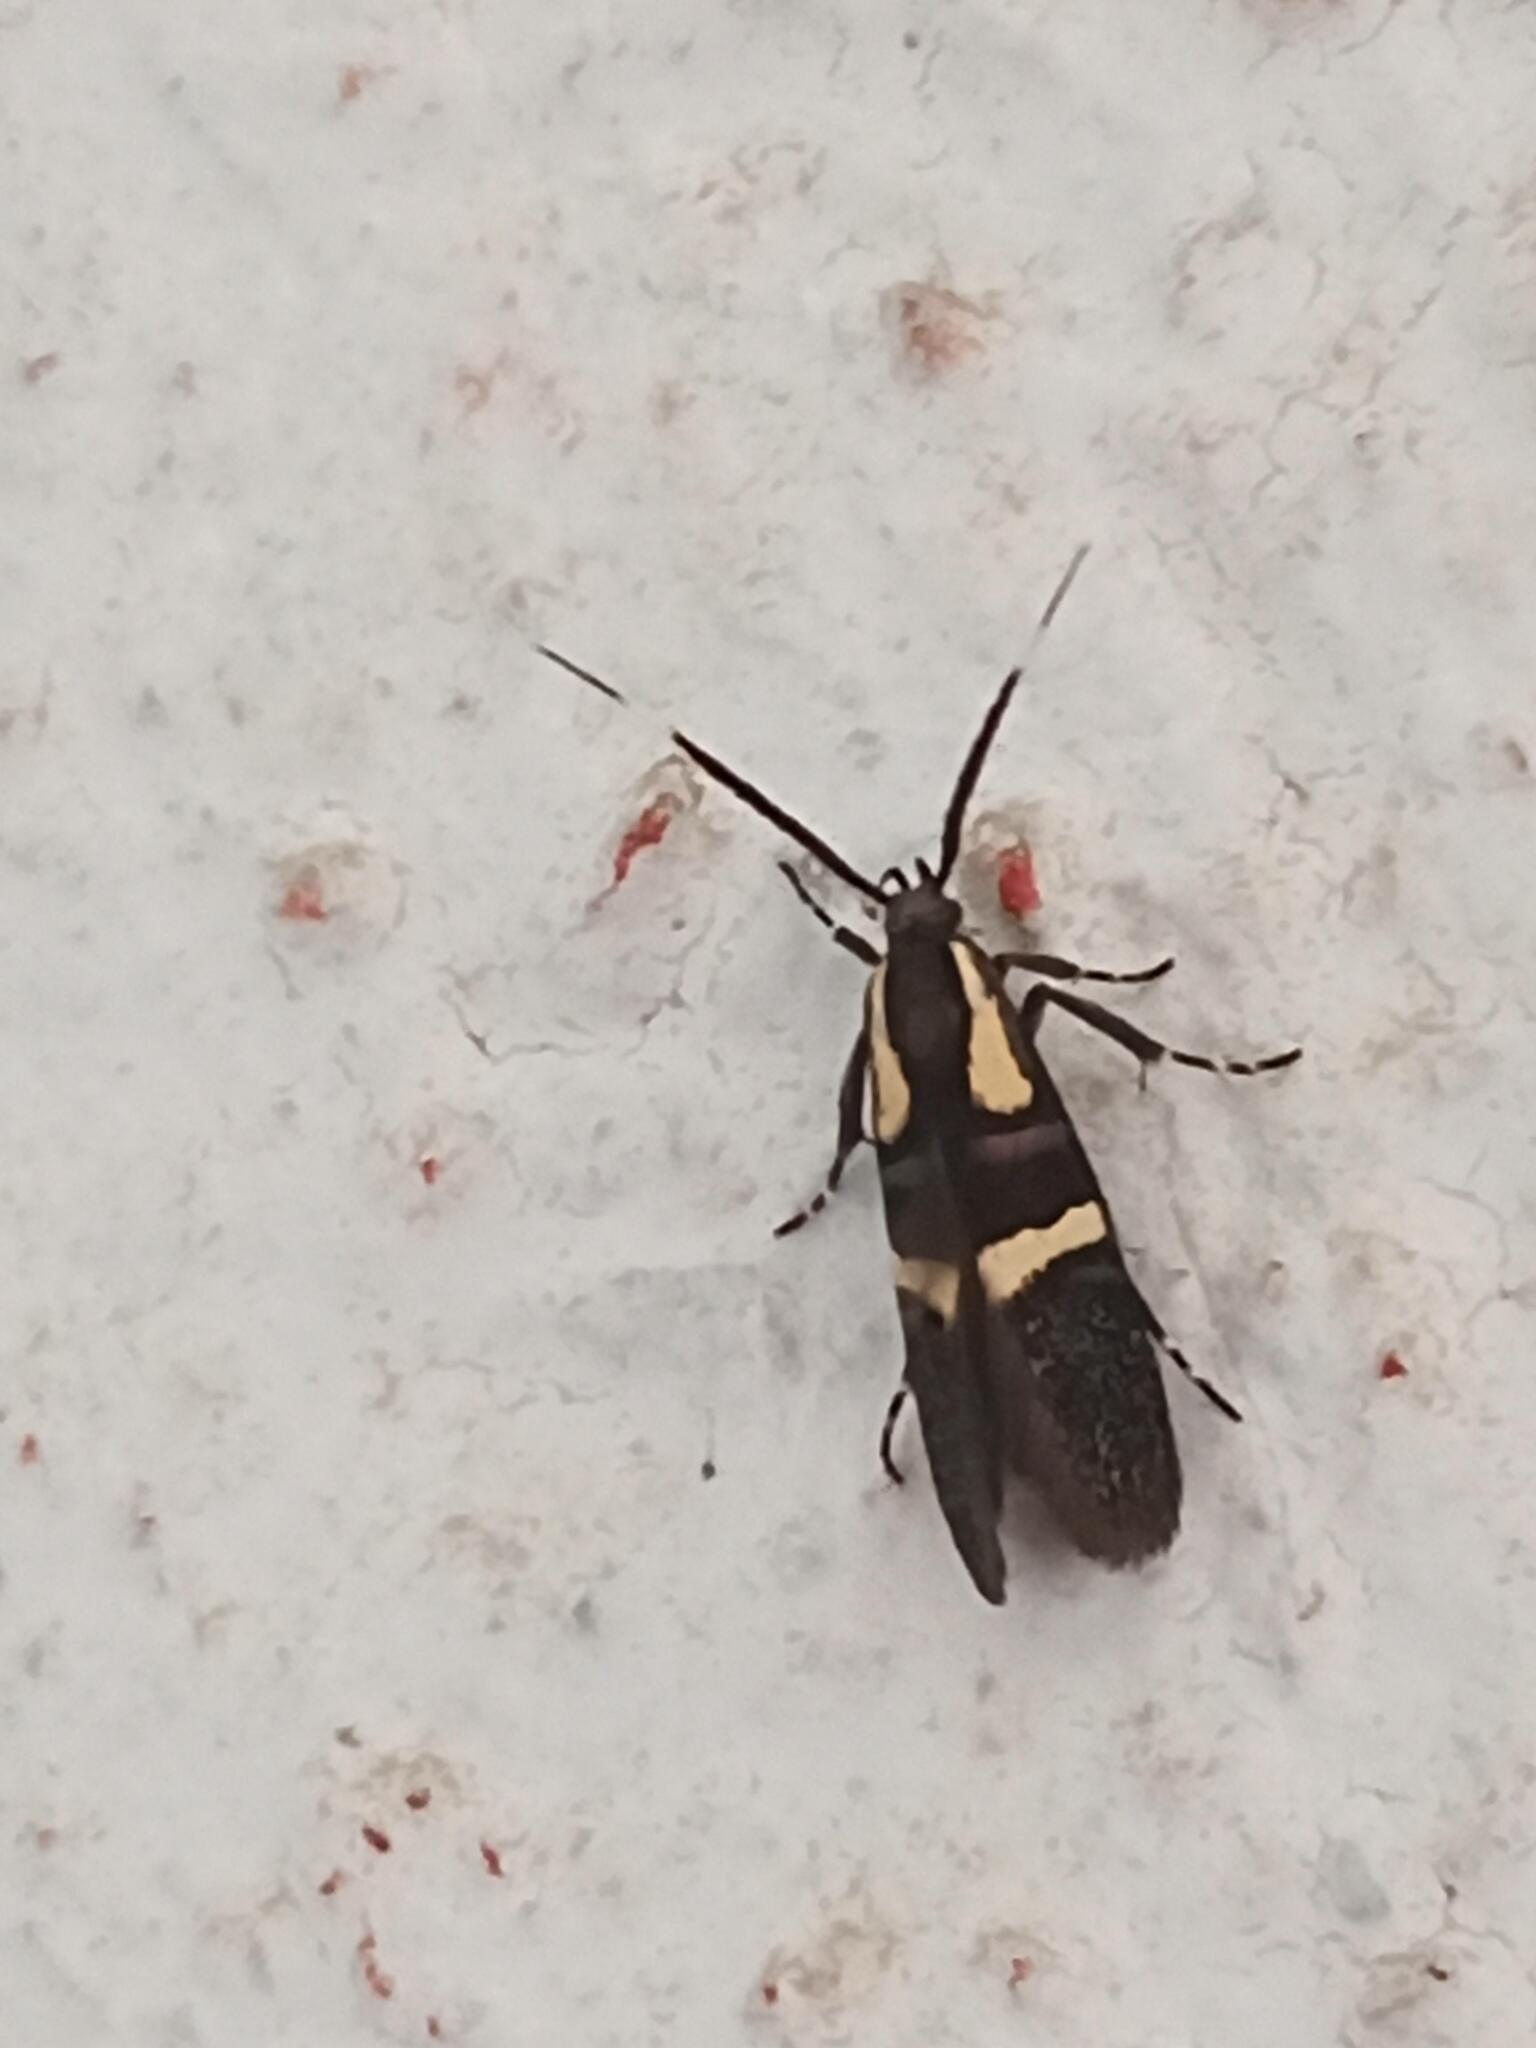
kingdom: Animalia
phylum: Arthropoda
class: Insecta
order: Lepidoptera
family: Oecophoridae
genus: Dafa
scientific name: Dafa oliviella
